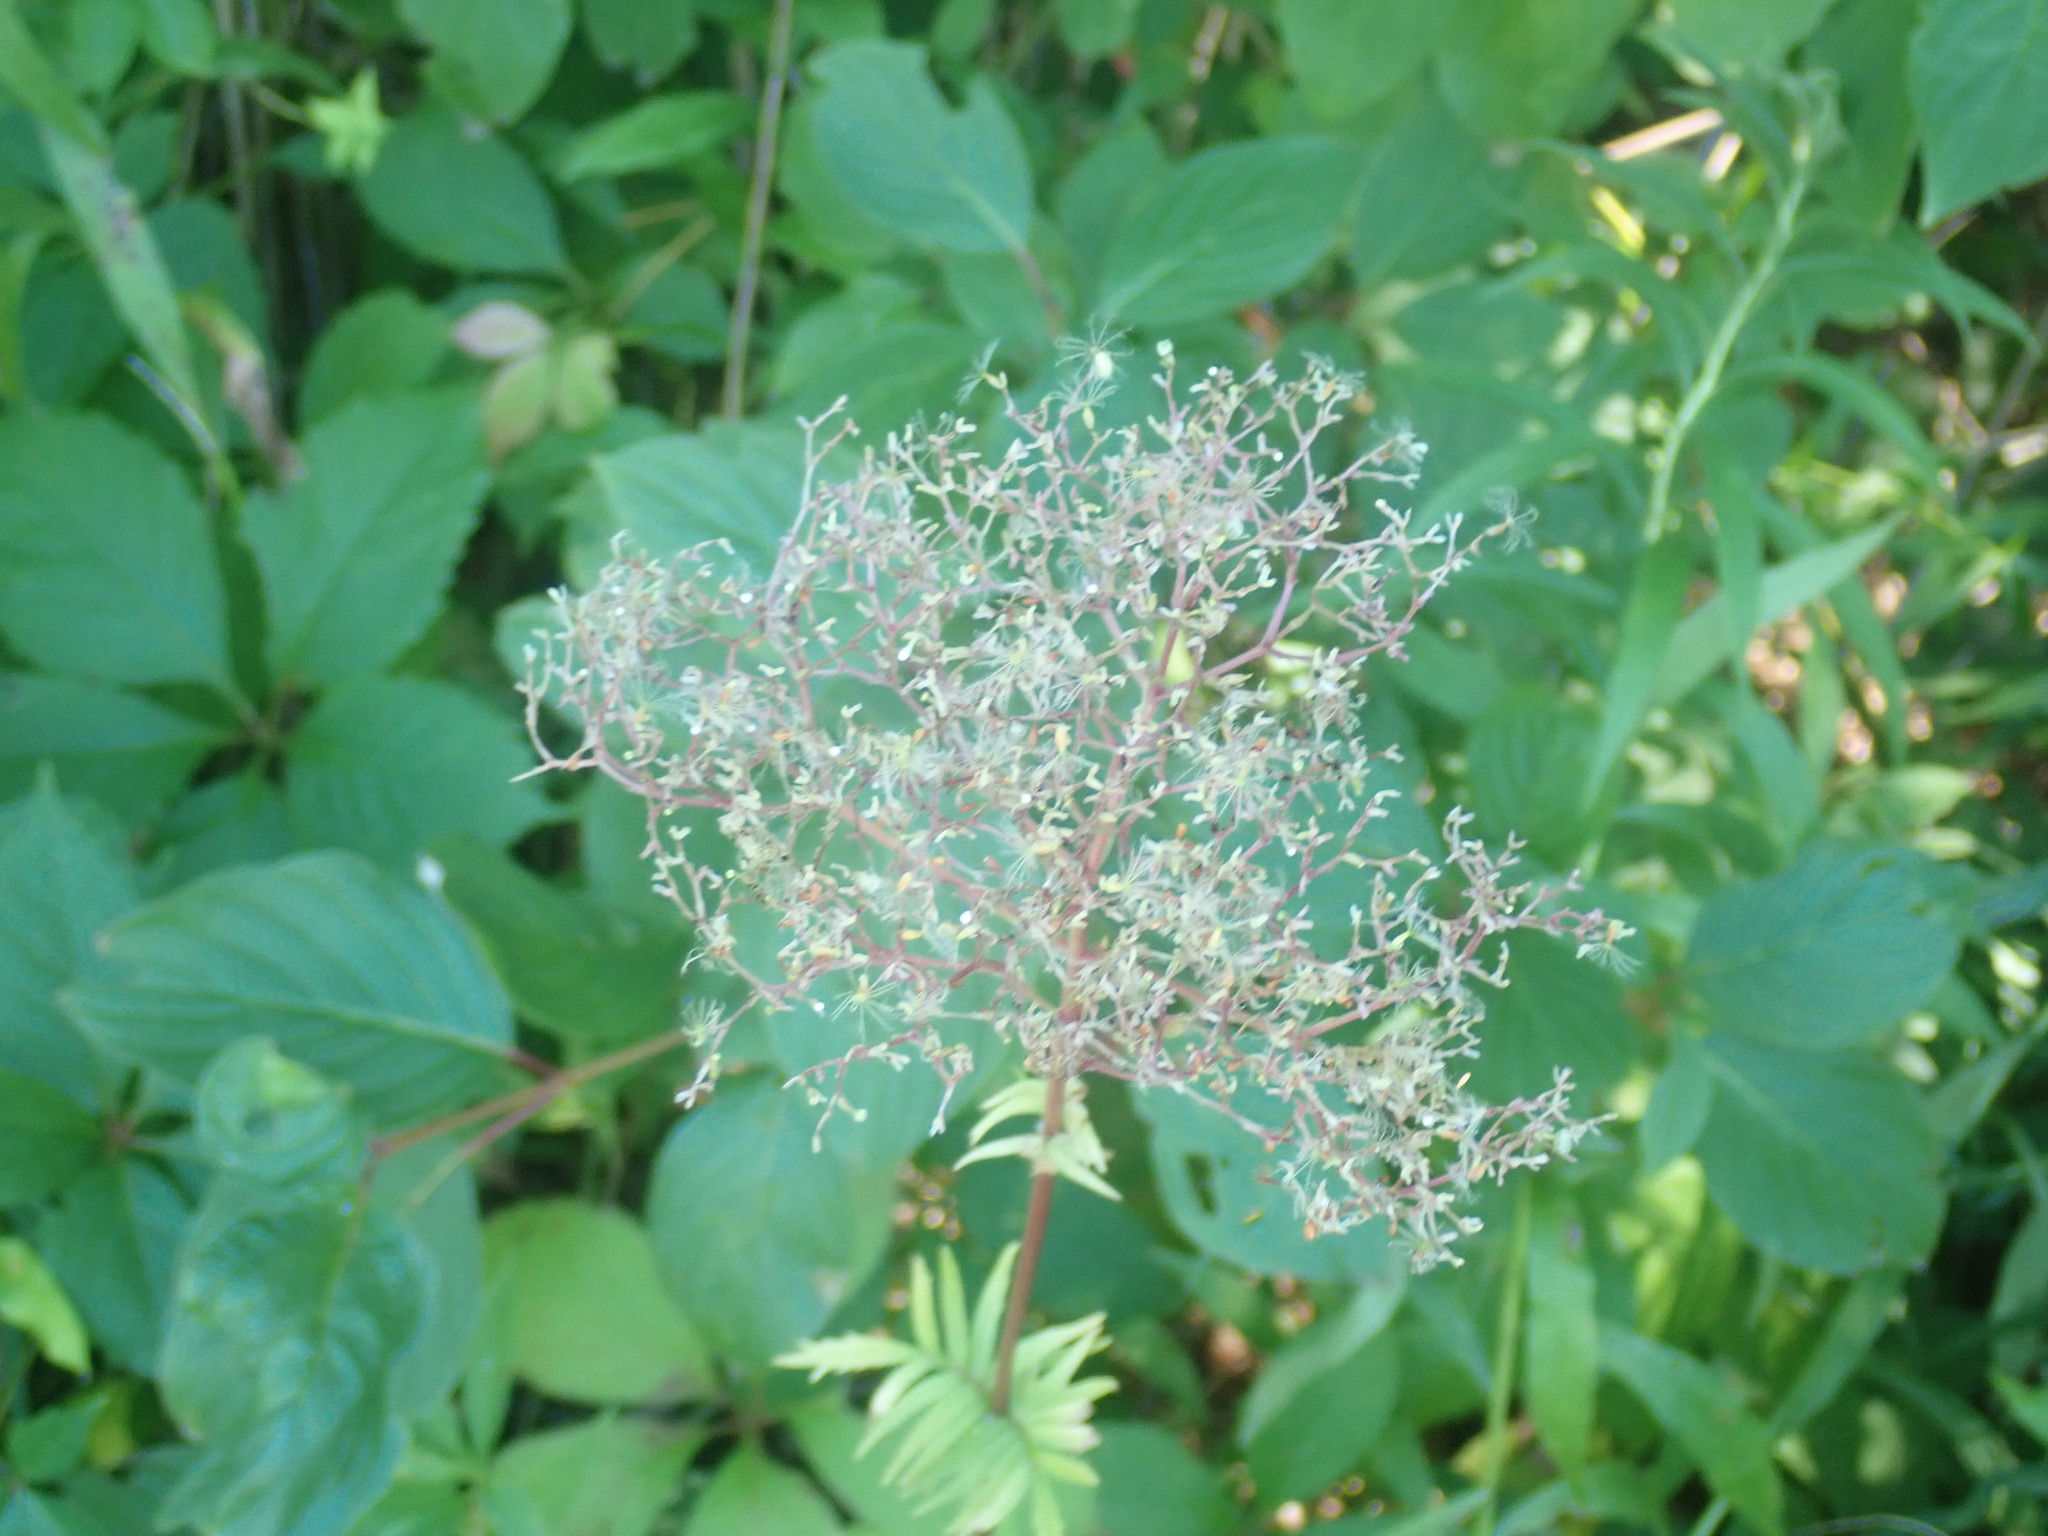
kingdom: Plantae
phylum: Tracheophyta
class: Magnoliopsida
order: Dipsacales
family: Caprifoliaceae
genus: Valeriana
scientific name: Valeriana officinalis
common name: Common valerian
